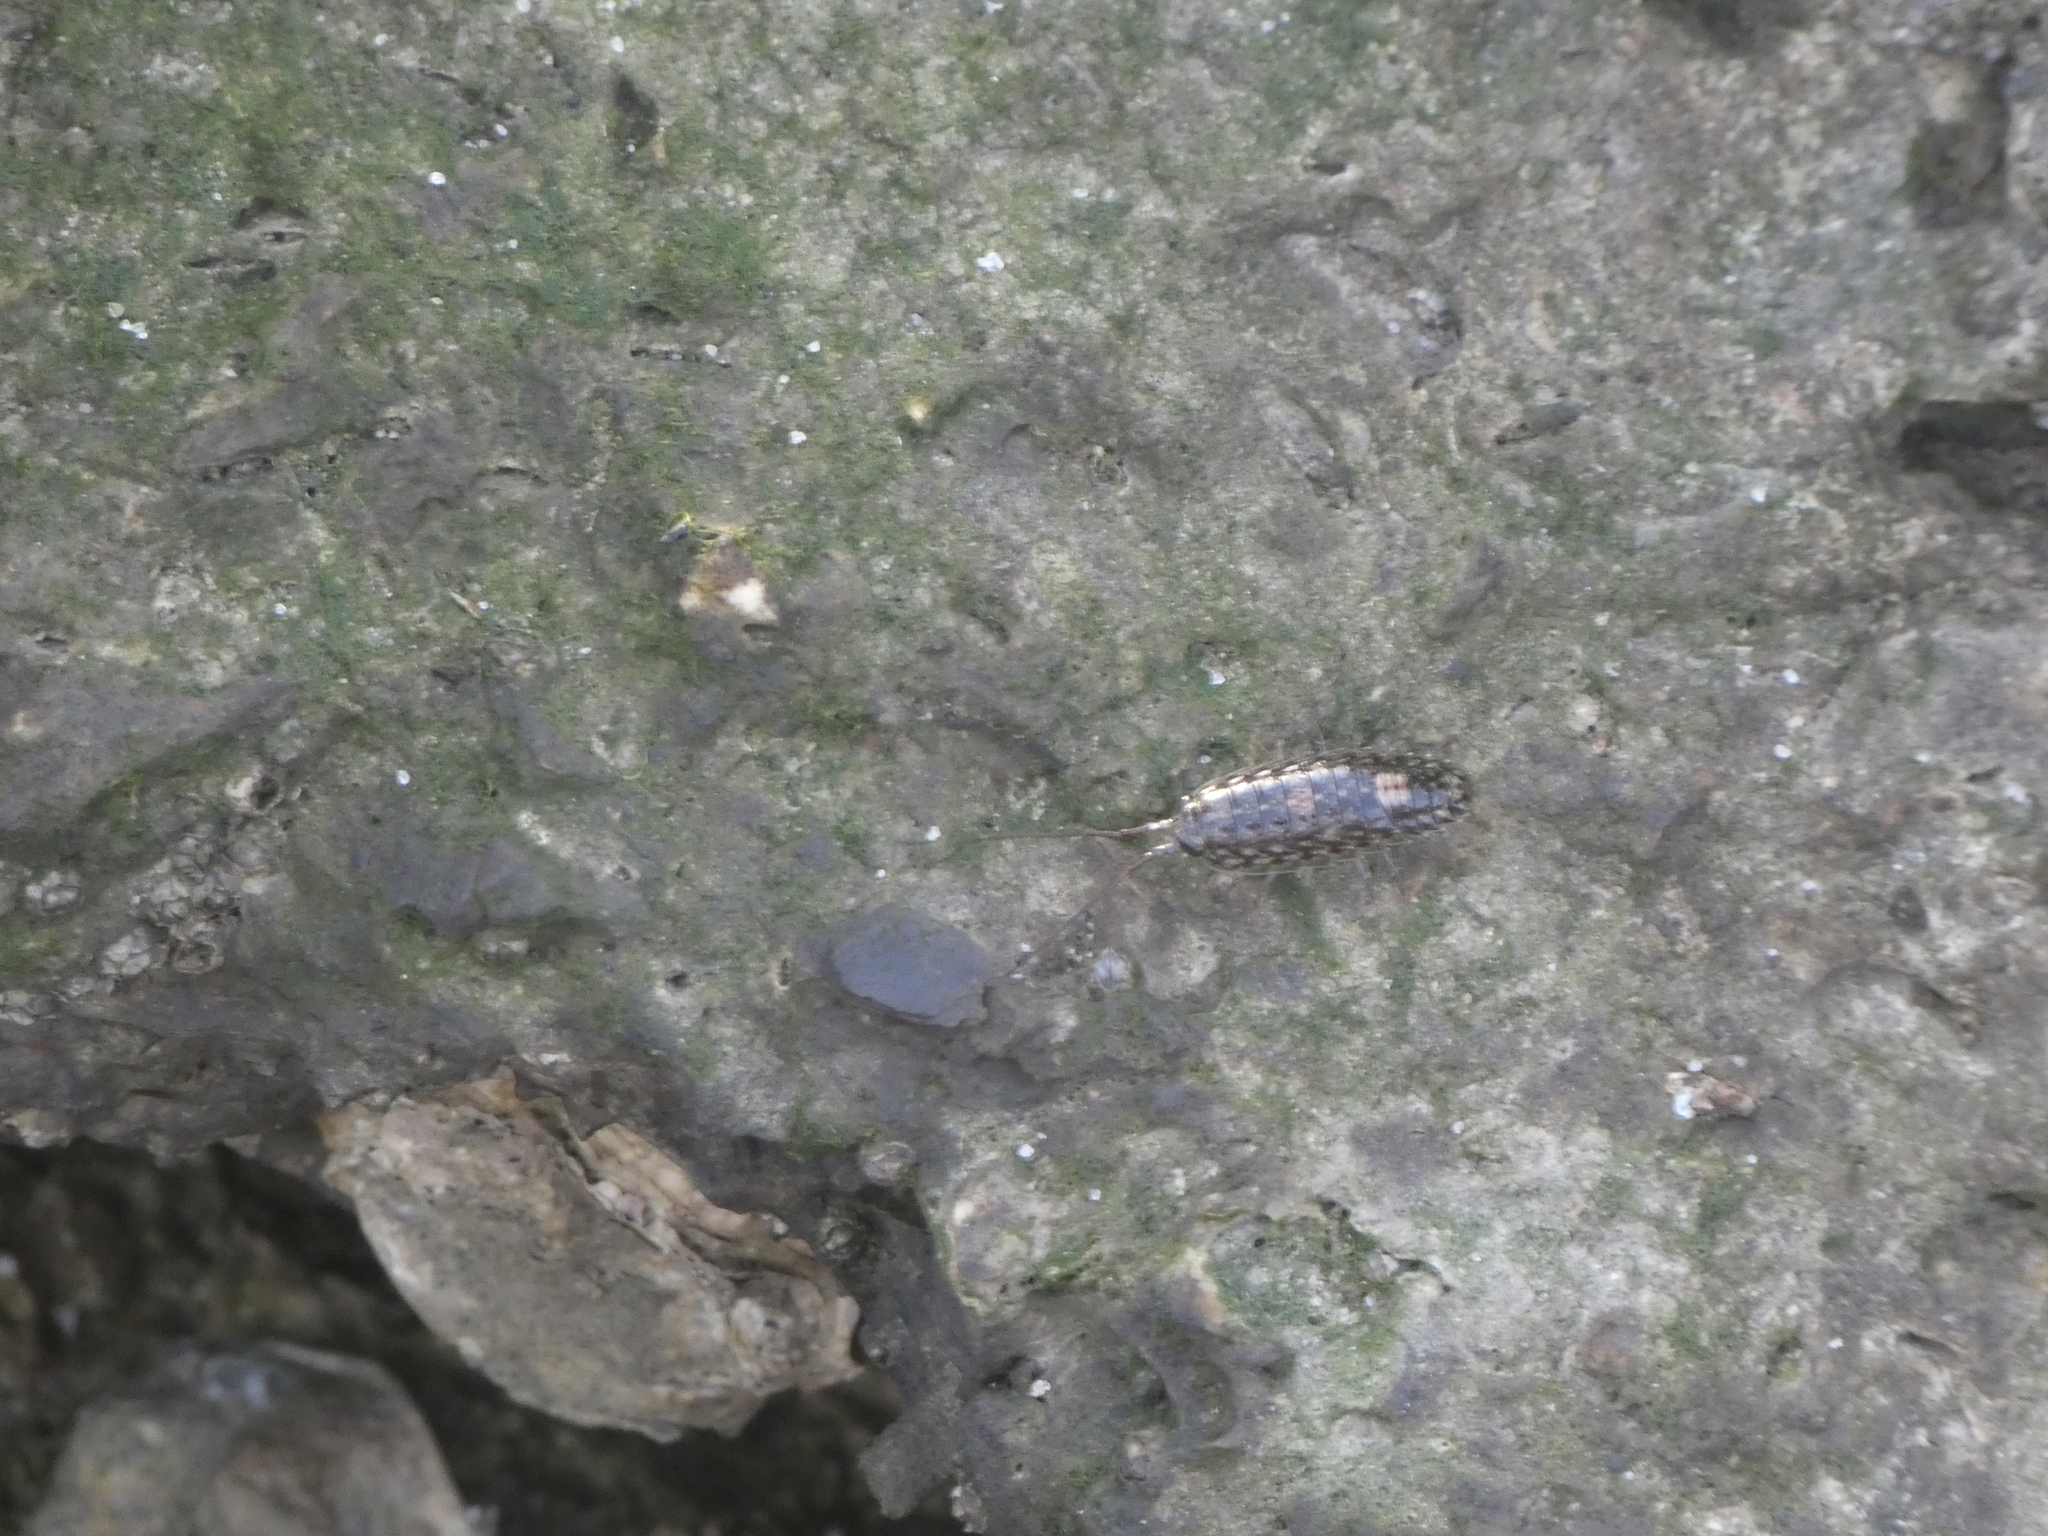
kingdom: Animalia
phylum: Arthropoda
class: Malacostraca
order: Isopoda
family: Ligiidae
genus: Ligia
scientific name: Ligia exotica
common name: Wharf roach
